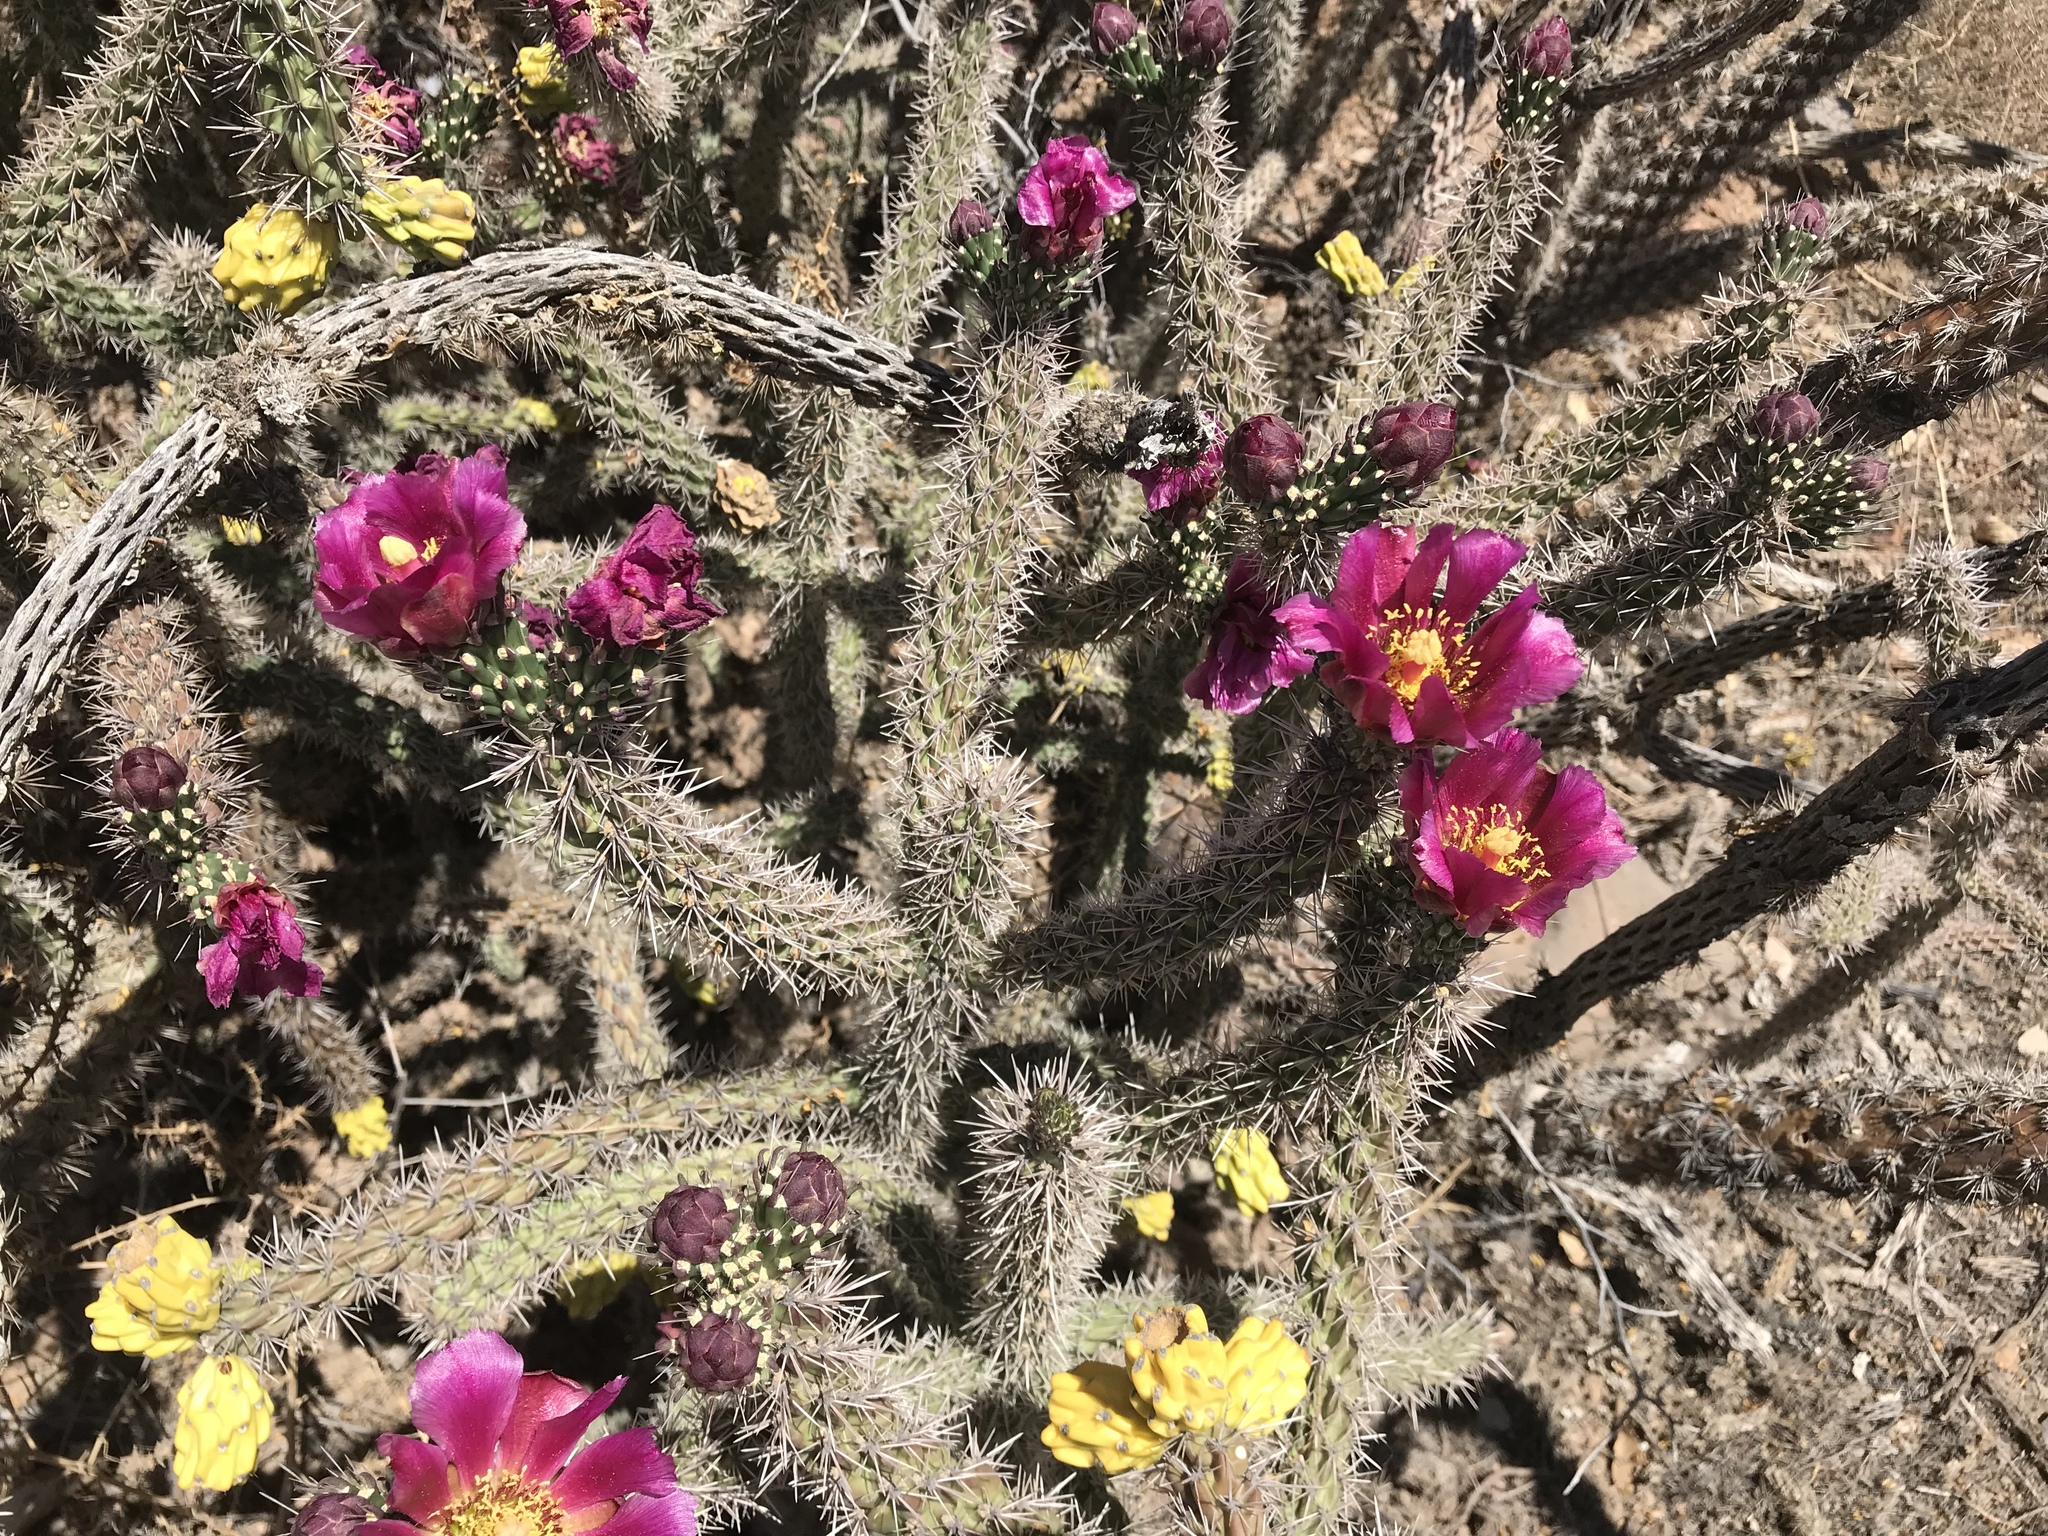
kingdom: Plantae
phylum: Tracheophyta
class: Magnoliopsida
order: Caryophyllales
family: Cactaceae
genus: Cylindropuntia
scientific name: Cylindropuntia imbricata
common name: Candelabrum cactus
